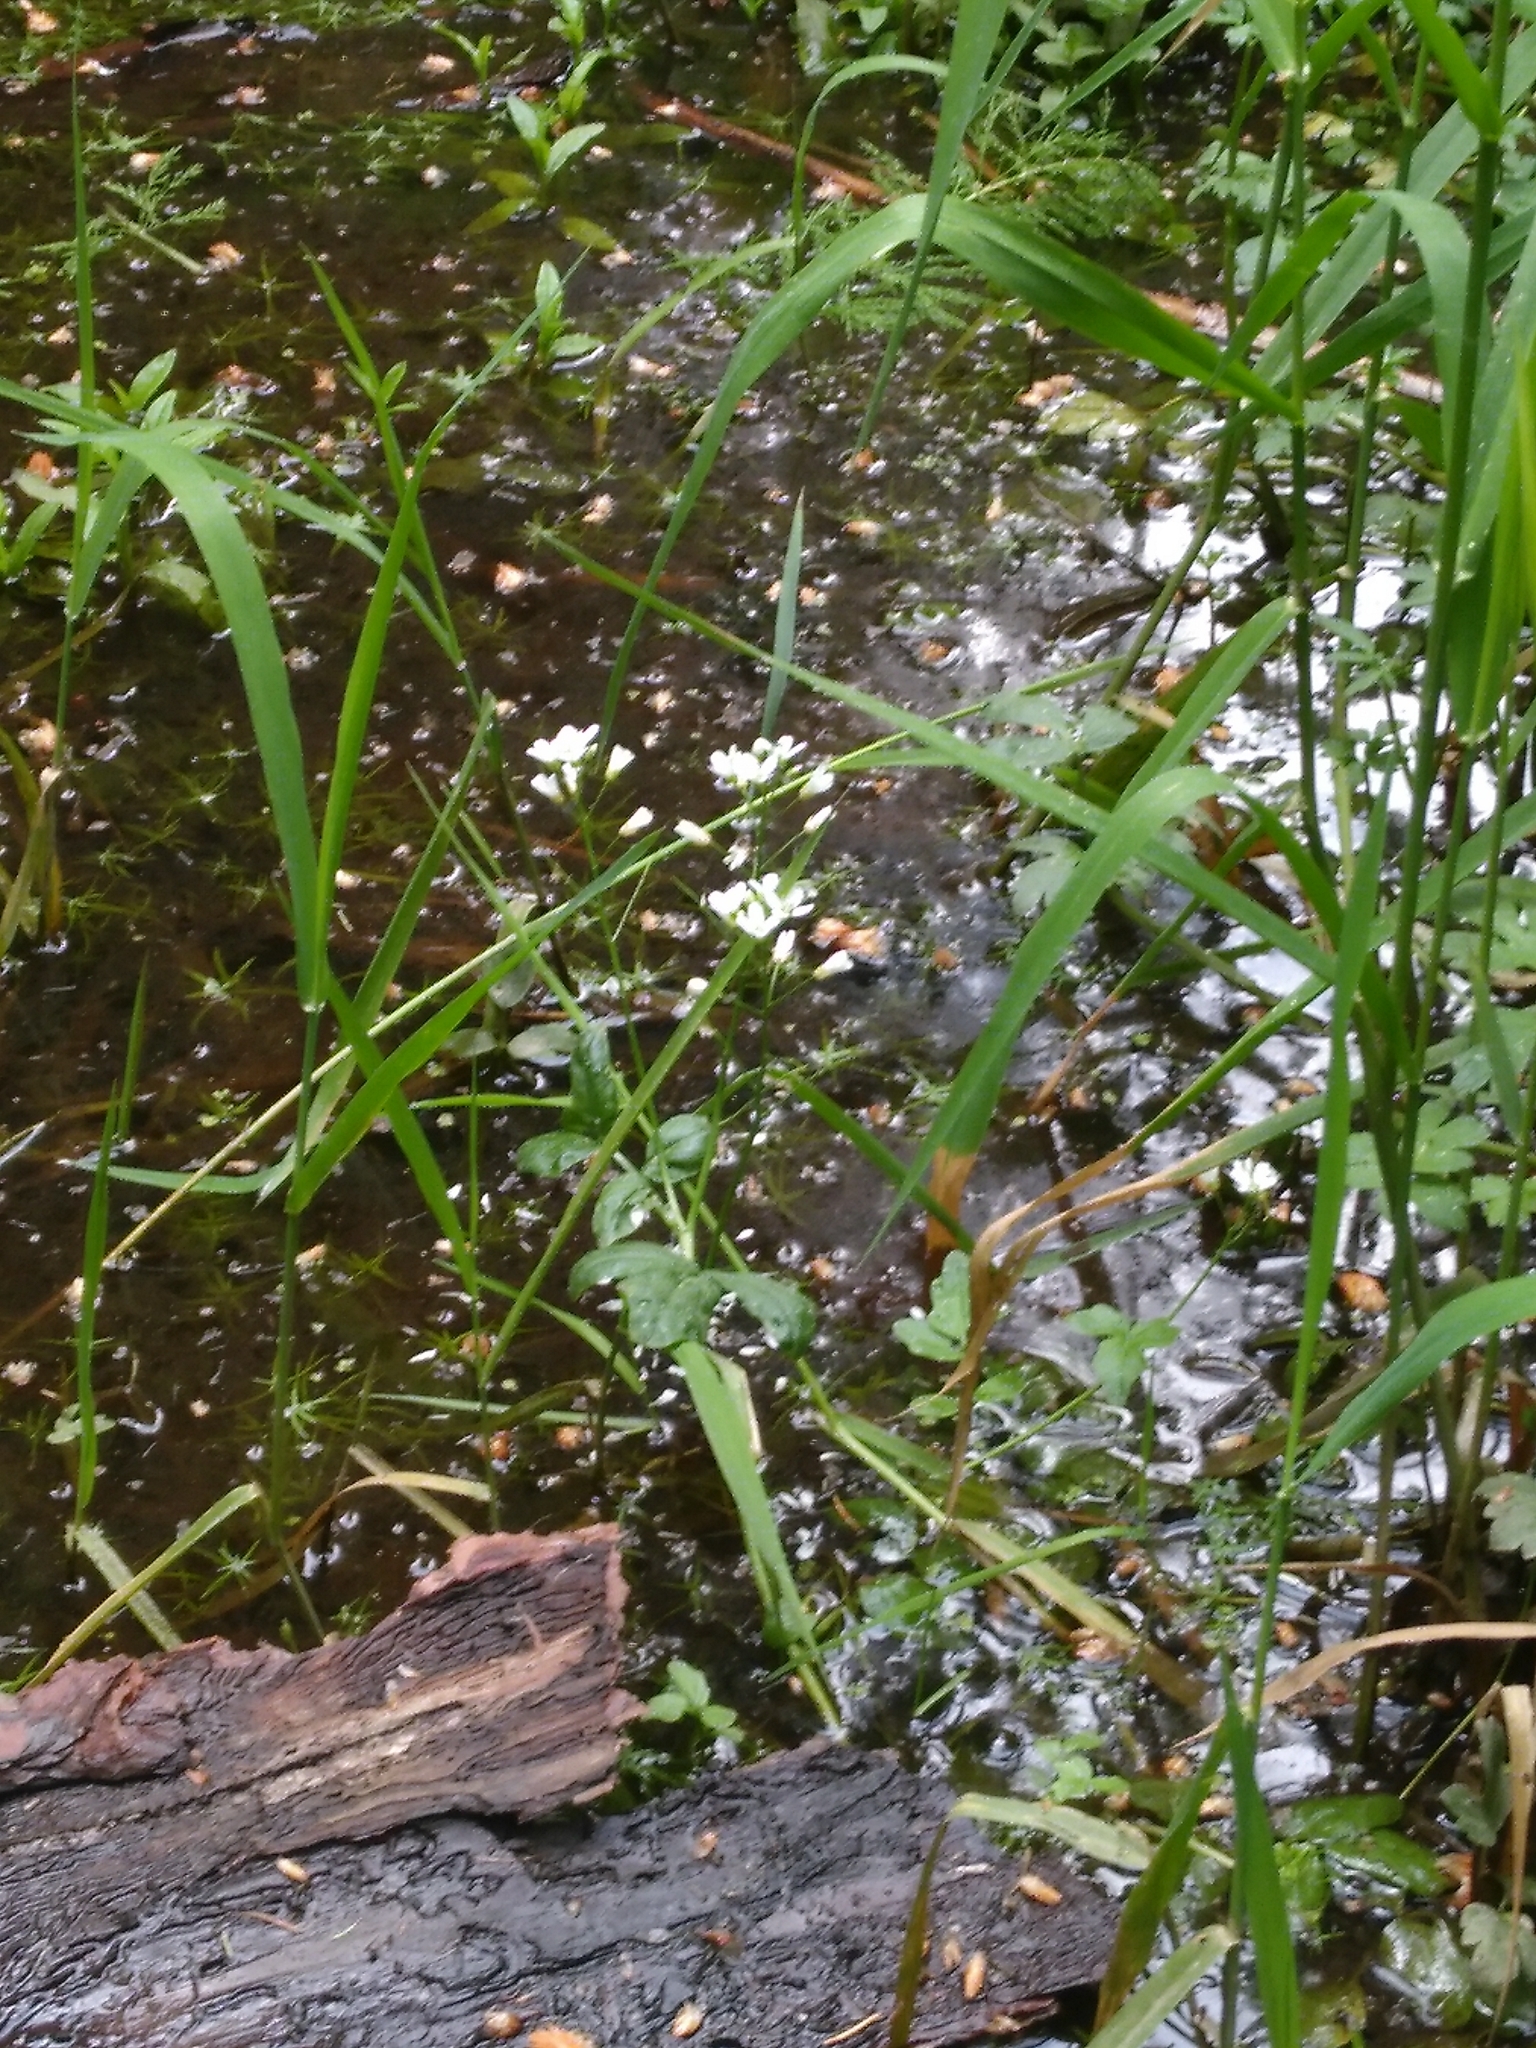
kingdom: Plantae
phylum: Tracheophyta
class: Magnoliopsida
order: Brassicales
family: Brassicaceae
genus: Cardamine
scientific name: Cardamine amara
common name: Large bitter-cress
